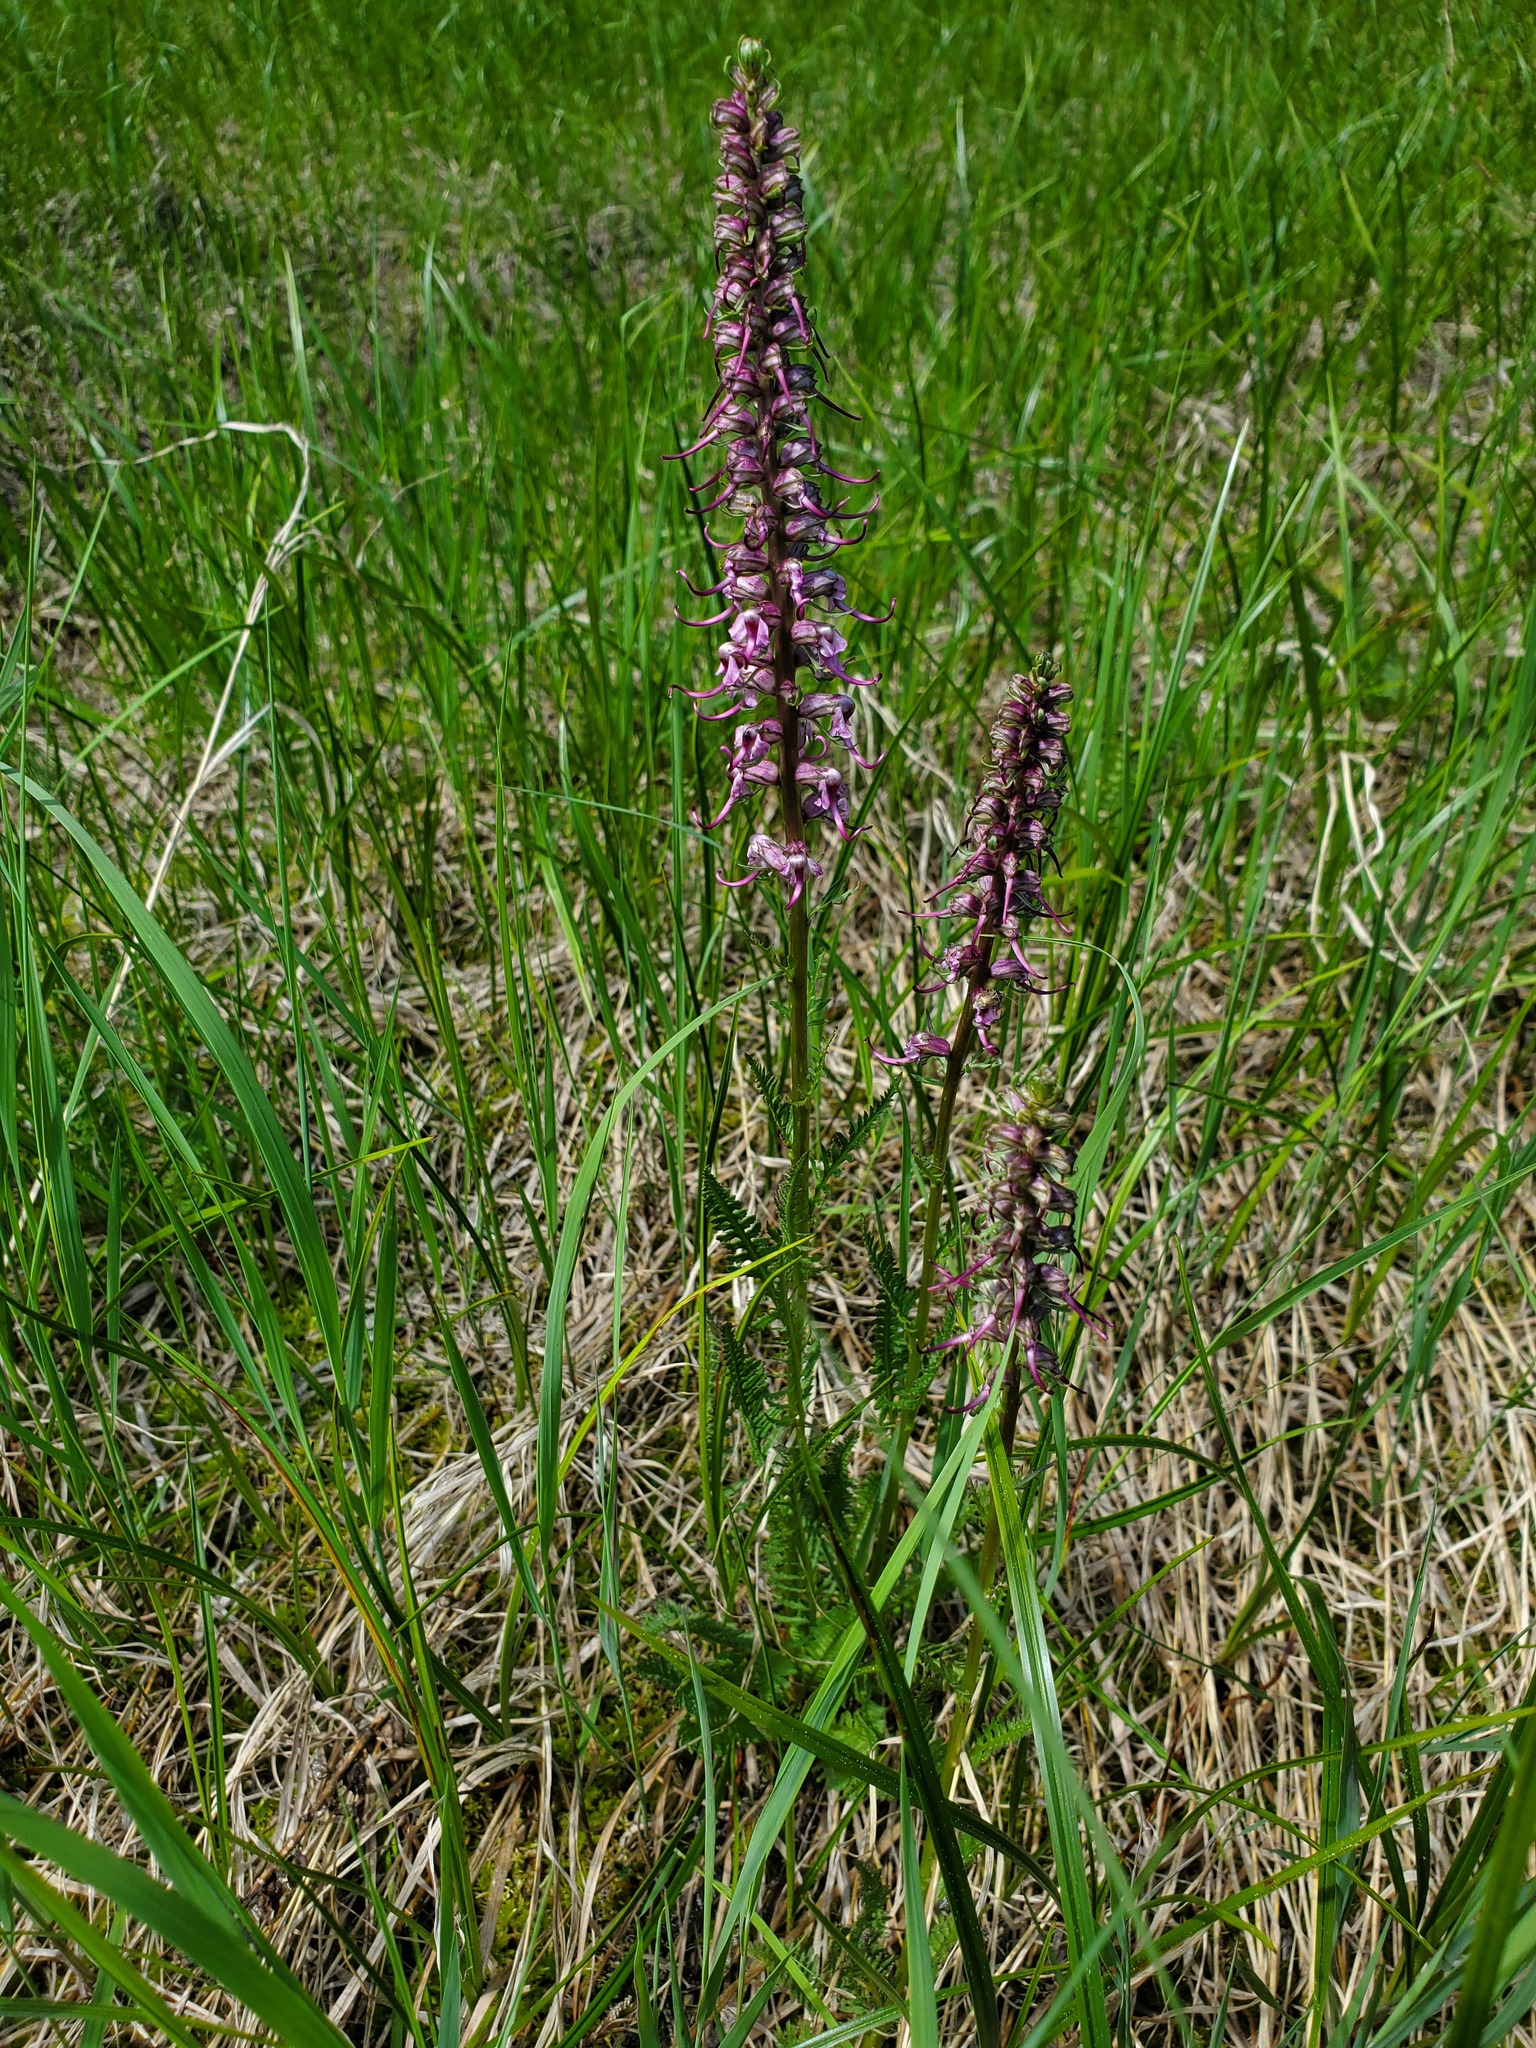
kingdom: Plantae
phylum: Tracheophyta
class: Magnoliopsida
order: Lamiales
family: Orobanchaceae
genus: Pedicularis
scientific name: Pedicularis groenlandica
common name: Elephant's-head
